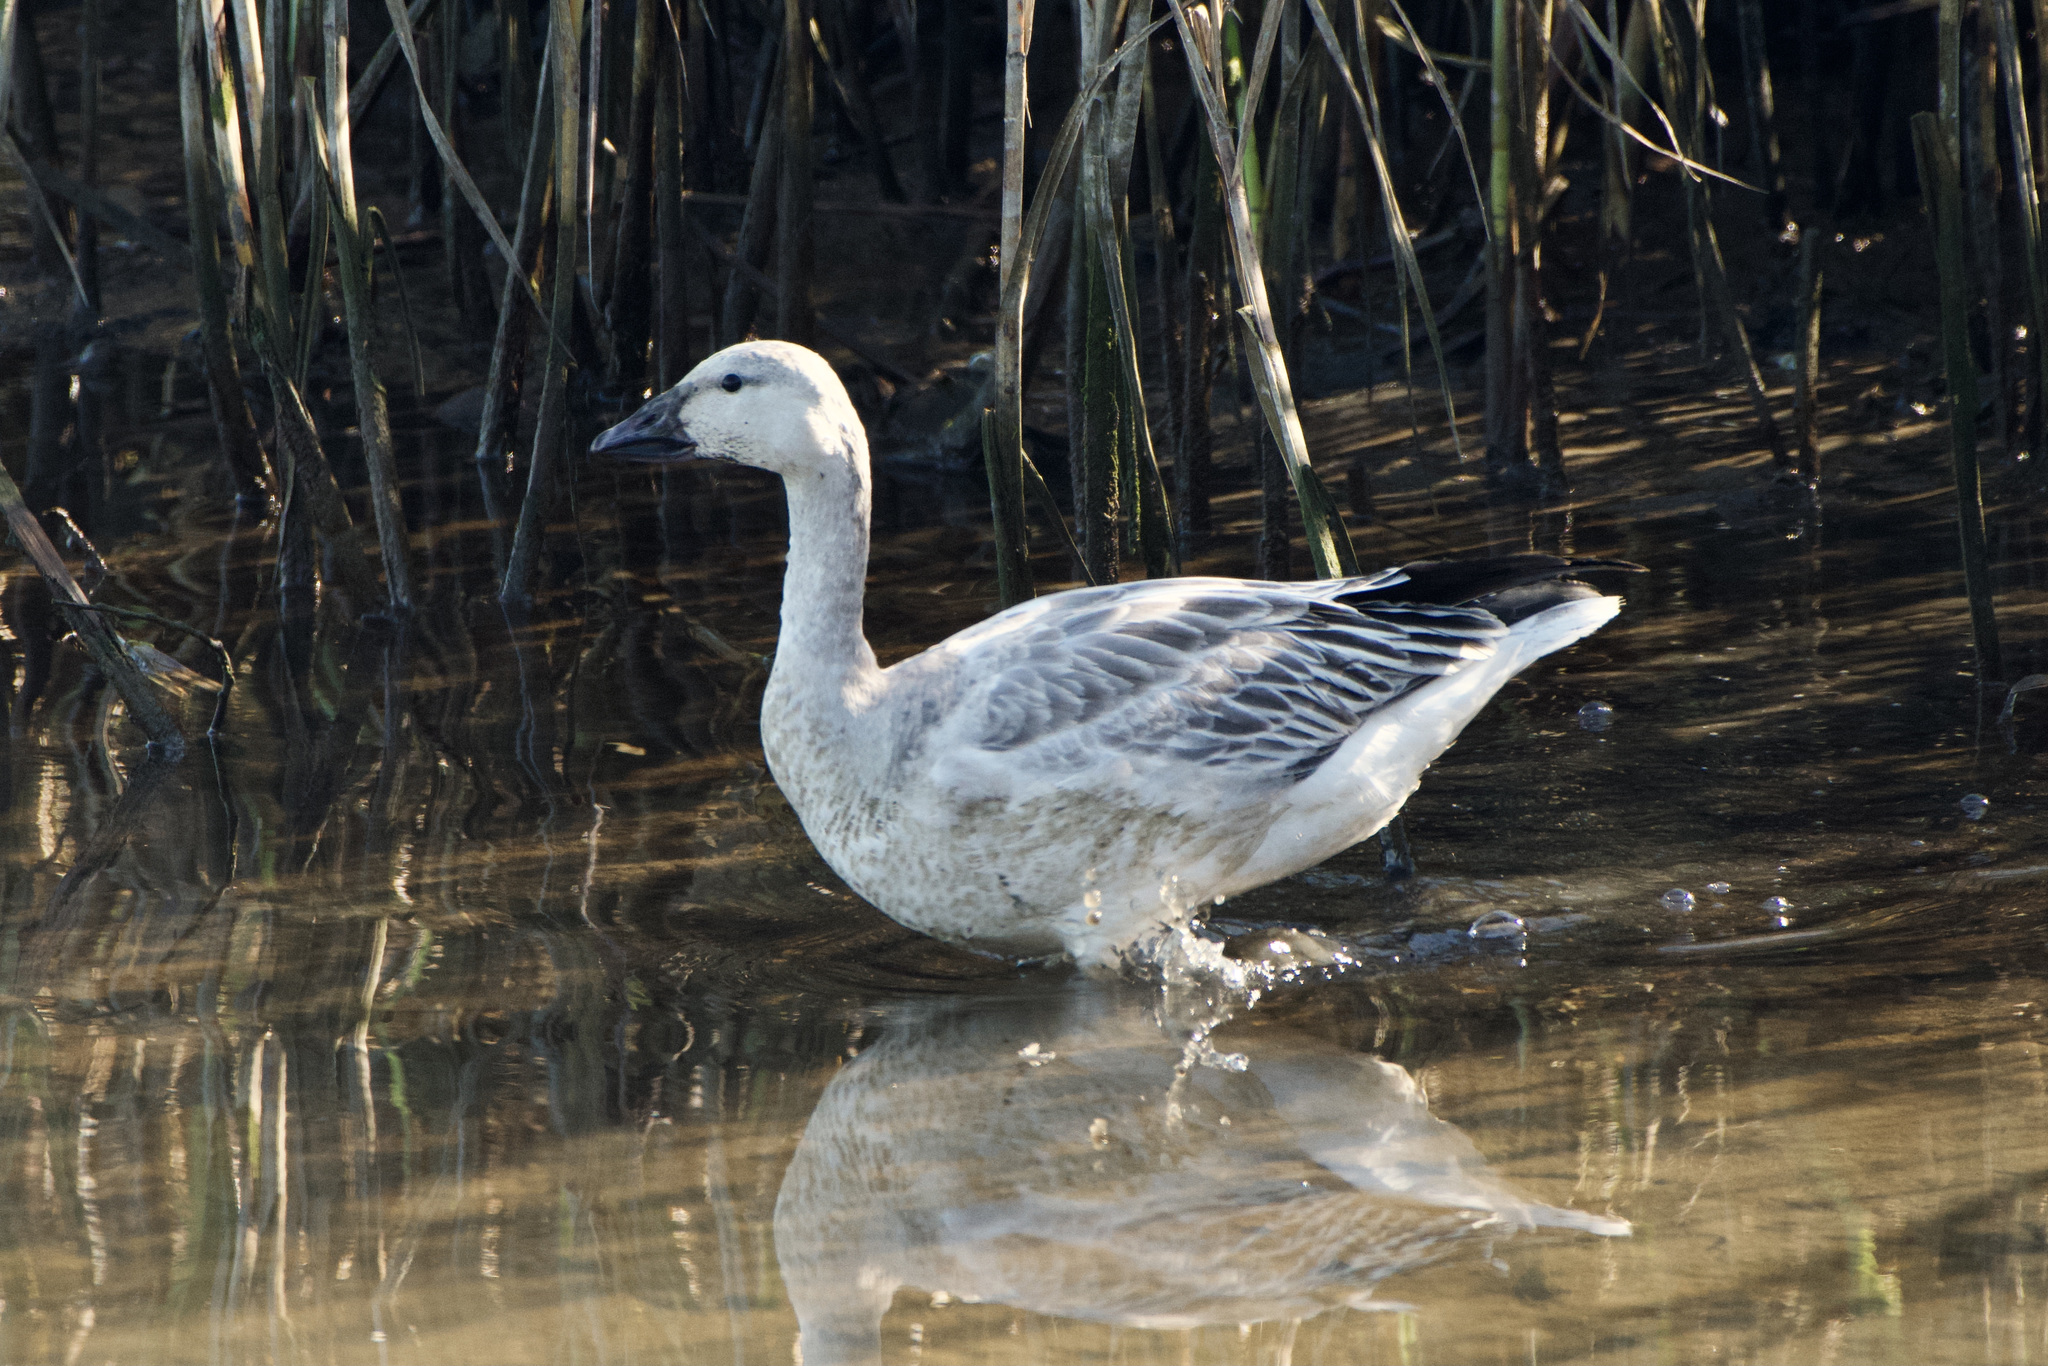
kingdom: Animalia
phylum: Chordata
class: Aves
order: Anseriformes
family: Anatidae
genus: Anser
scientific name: Anser caerulescens
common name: Snow goose
